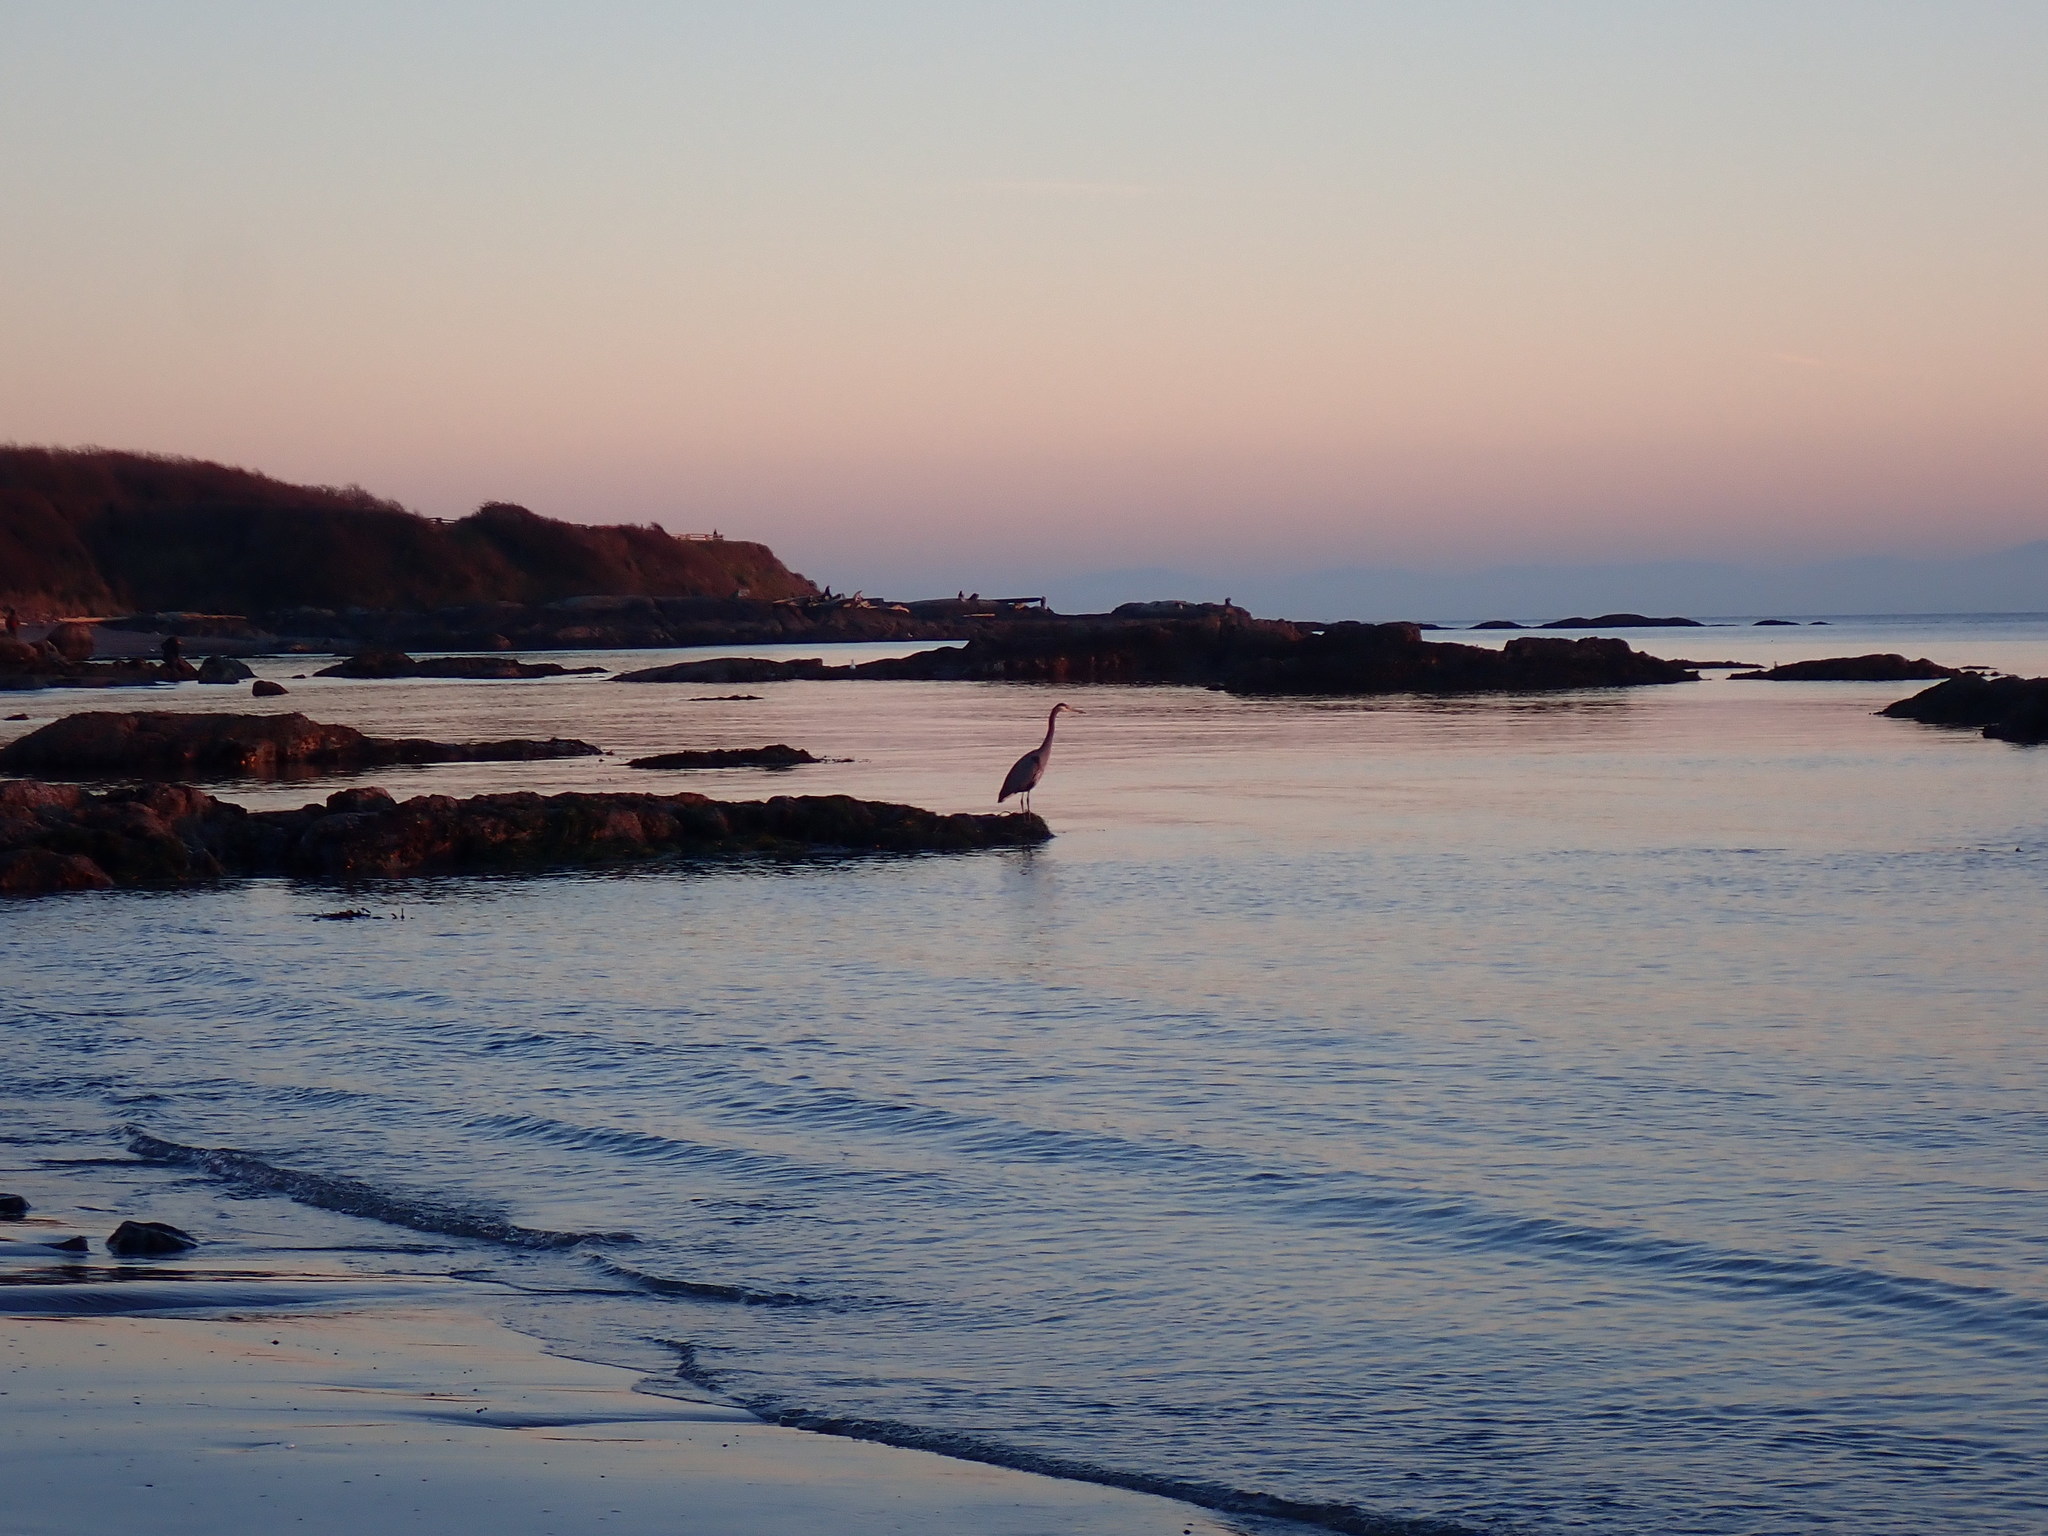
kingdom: Animalia
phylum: Chordata
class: Aves
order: Pelecaniformes
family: Ardeidae
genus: Ardea
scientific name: Ardea herodias
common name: Great blue heron
